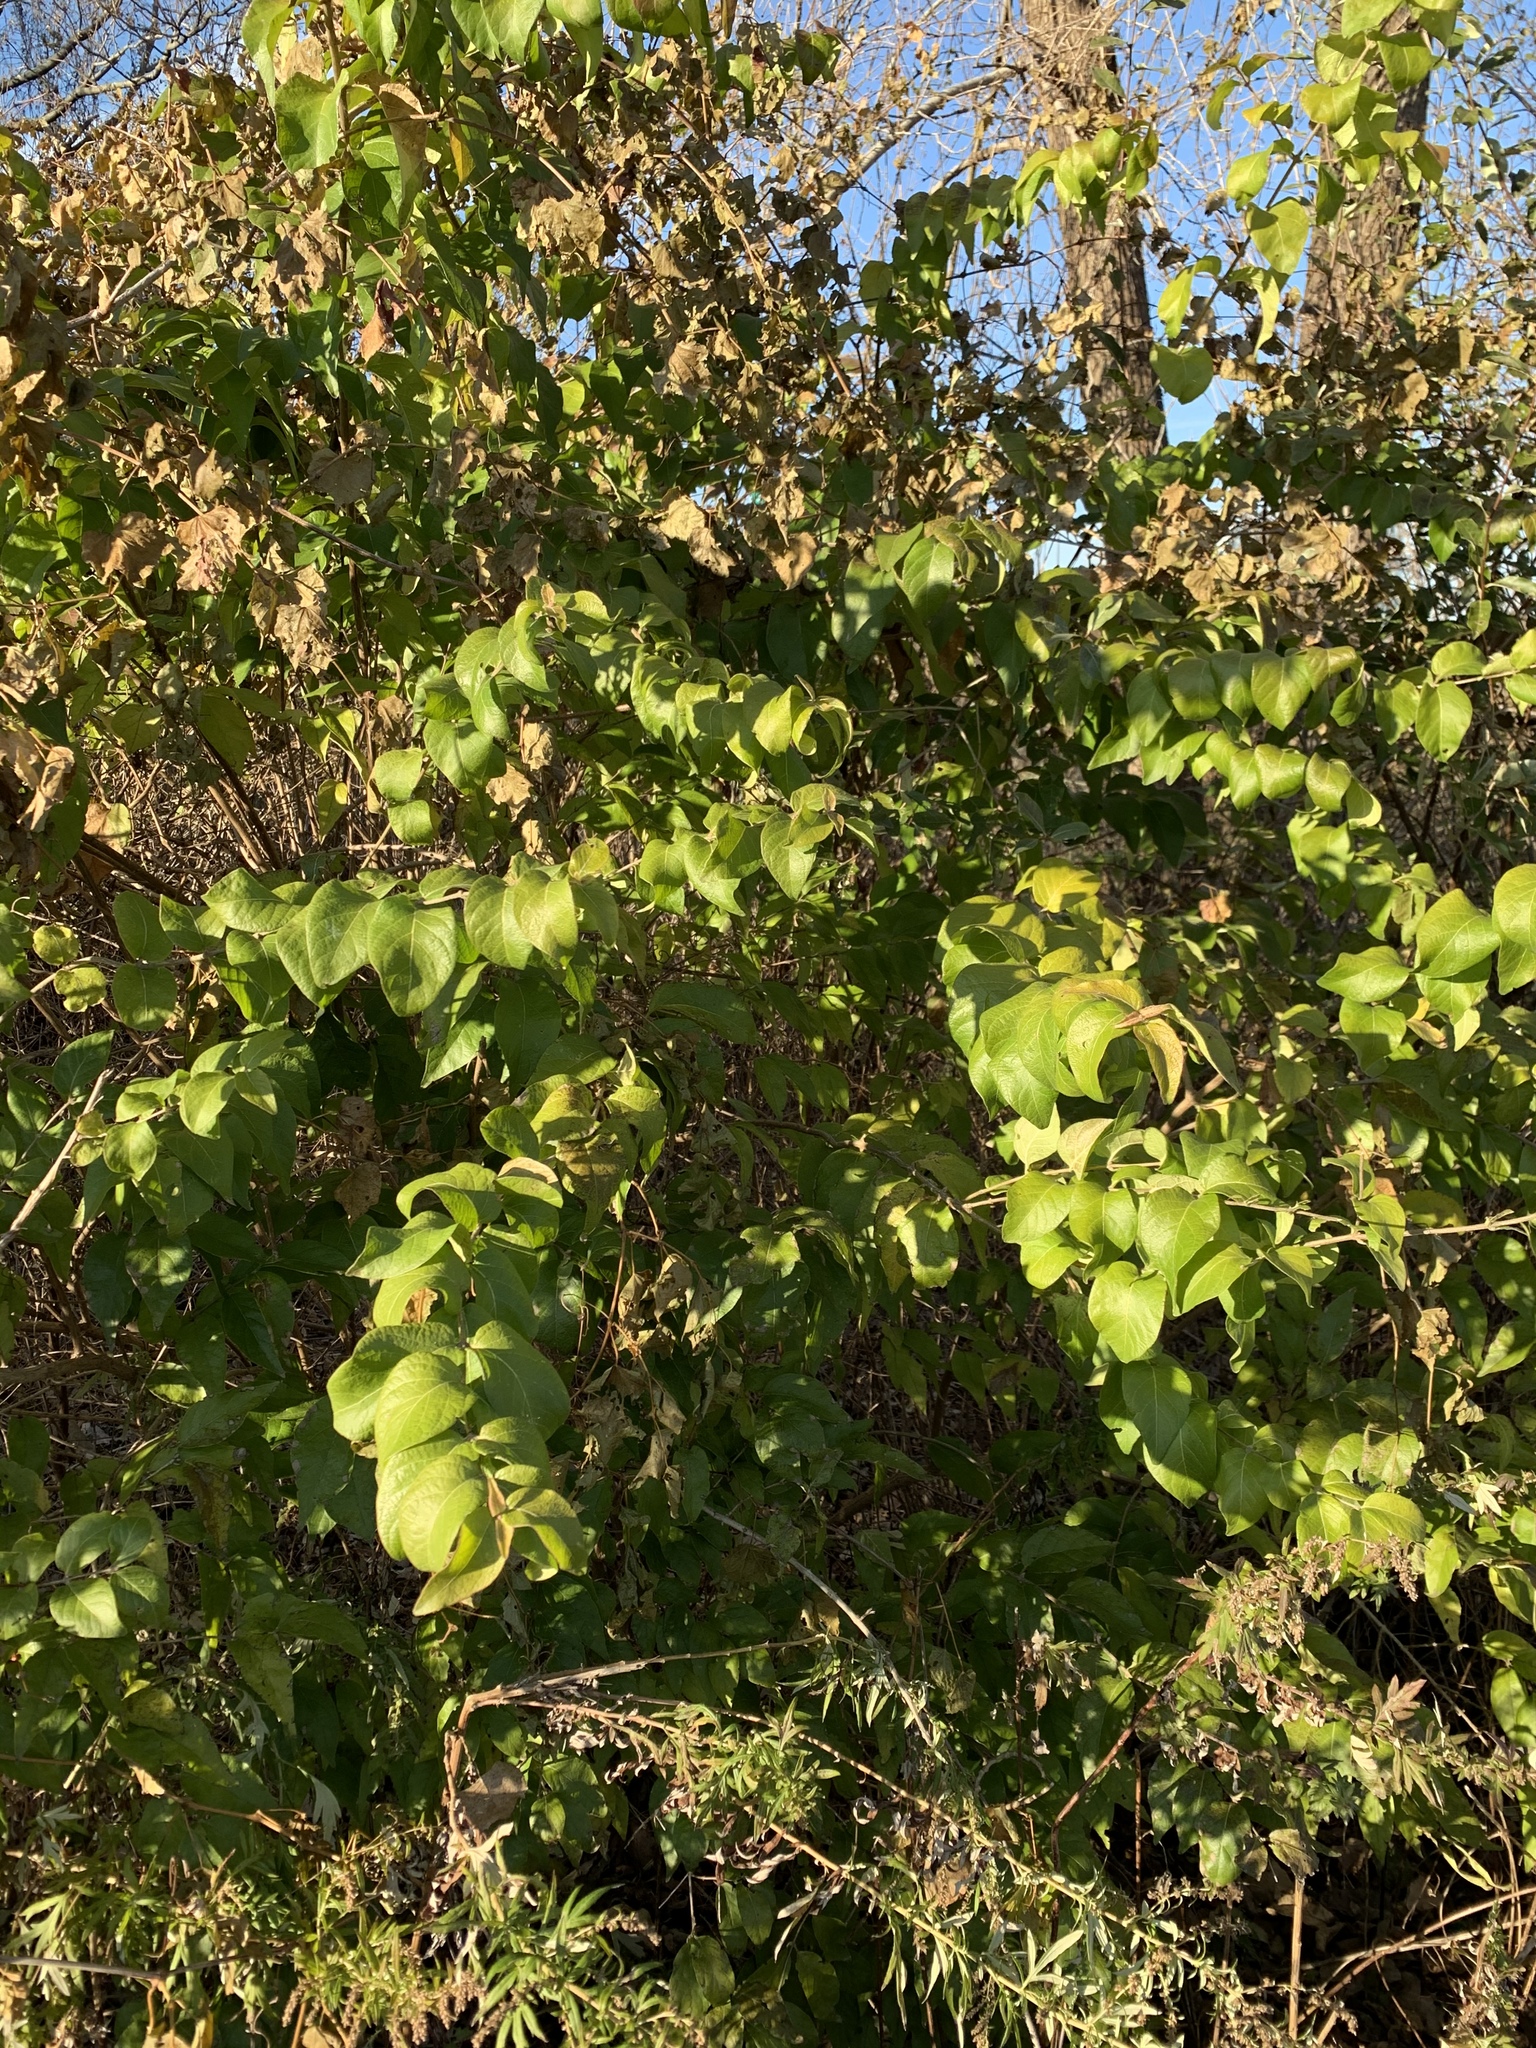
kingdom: Plantae
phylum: Tracheophyta
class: Magnoliopsida
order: Dipsacales
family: Caprifoliaceae
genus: Lonicera
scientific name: Lonicera maackii
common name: Amur honeysuckle
